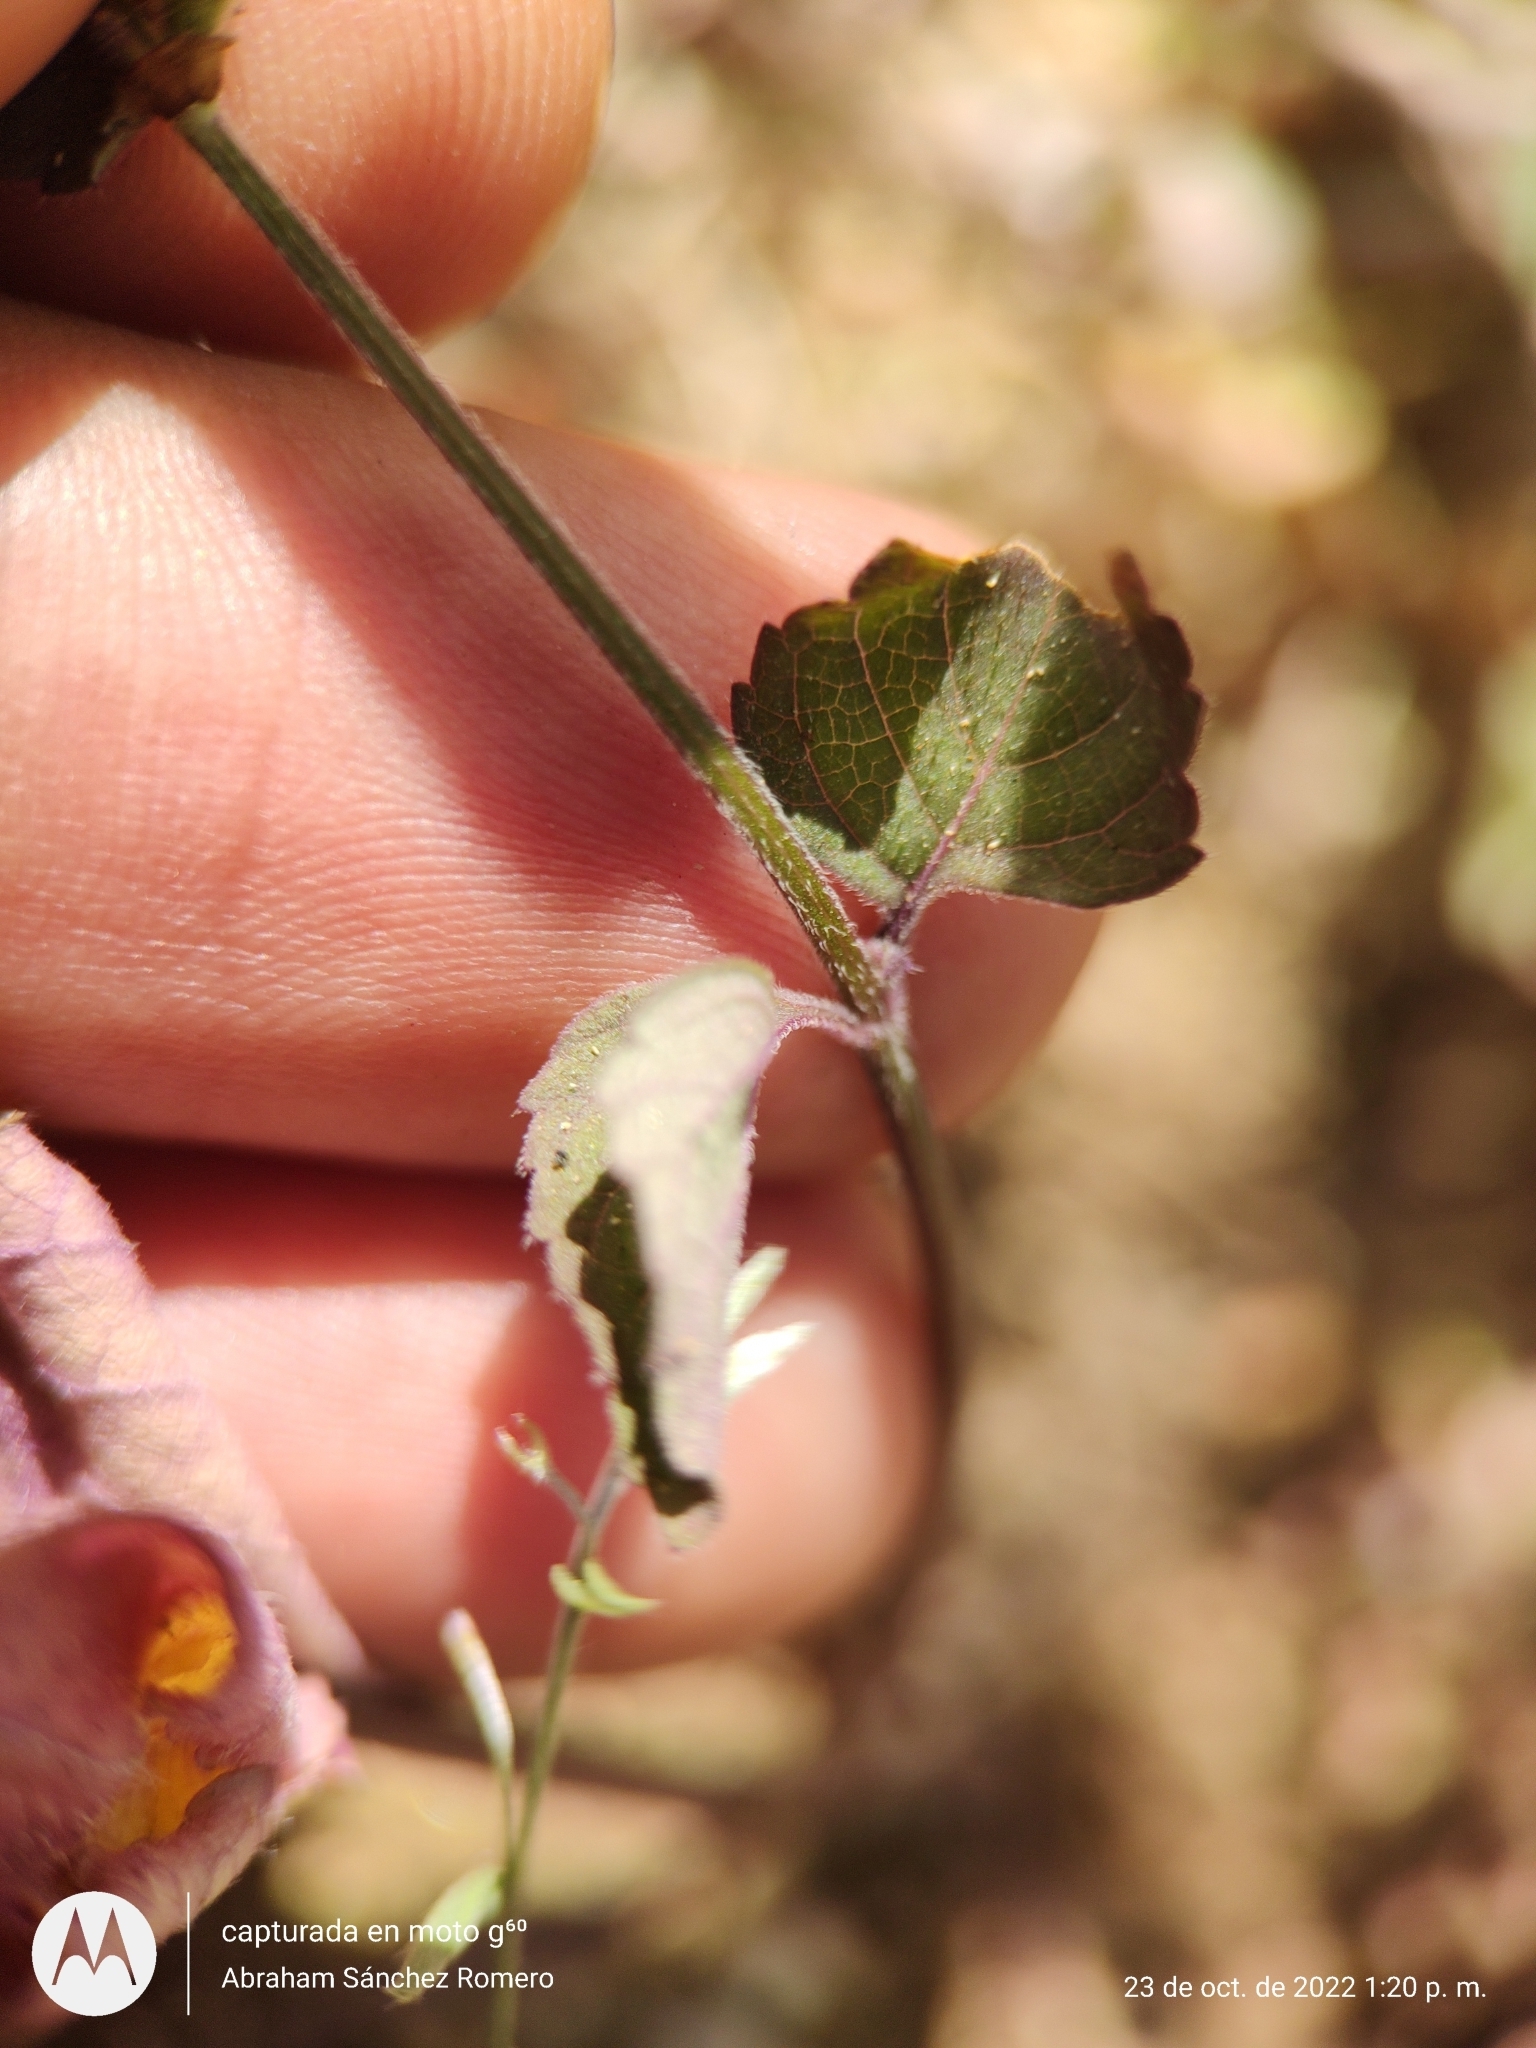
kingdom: Plantae
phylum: Tracheophyta
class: Magnoliopsida
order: Lamiales
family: Lamiaceae
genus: Salvia
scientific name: Salvia misella
